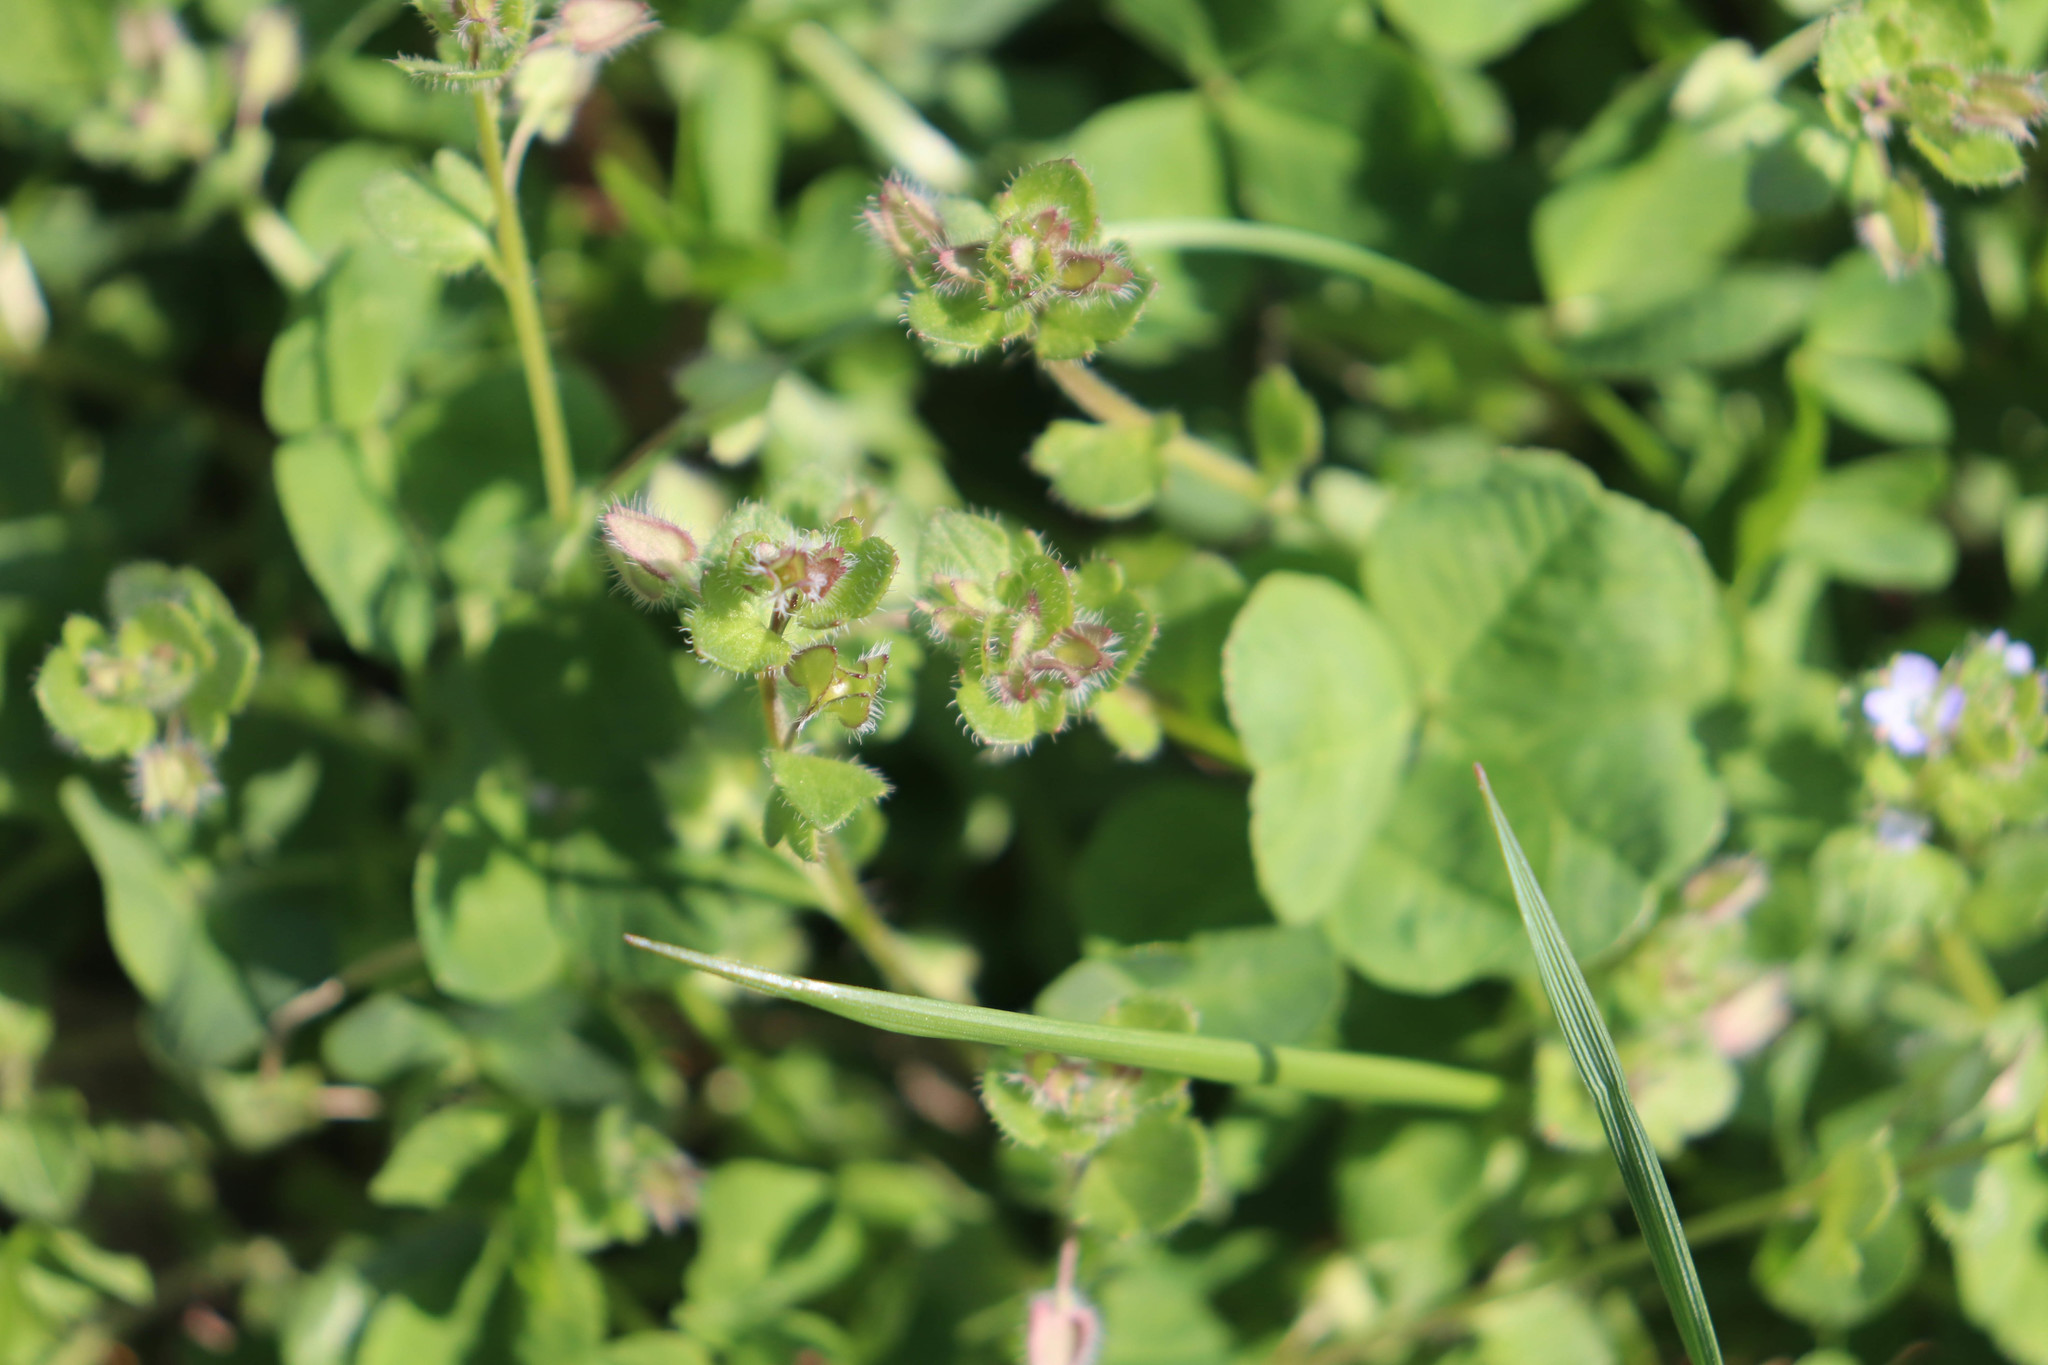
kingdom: Plantae
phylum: Tracheophyta
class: Magnoliopsida
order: Lamiales
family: Plantaginaceae
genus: Veronica
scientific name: Veronica hederifolia
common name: Ivy-leaved speedwell
